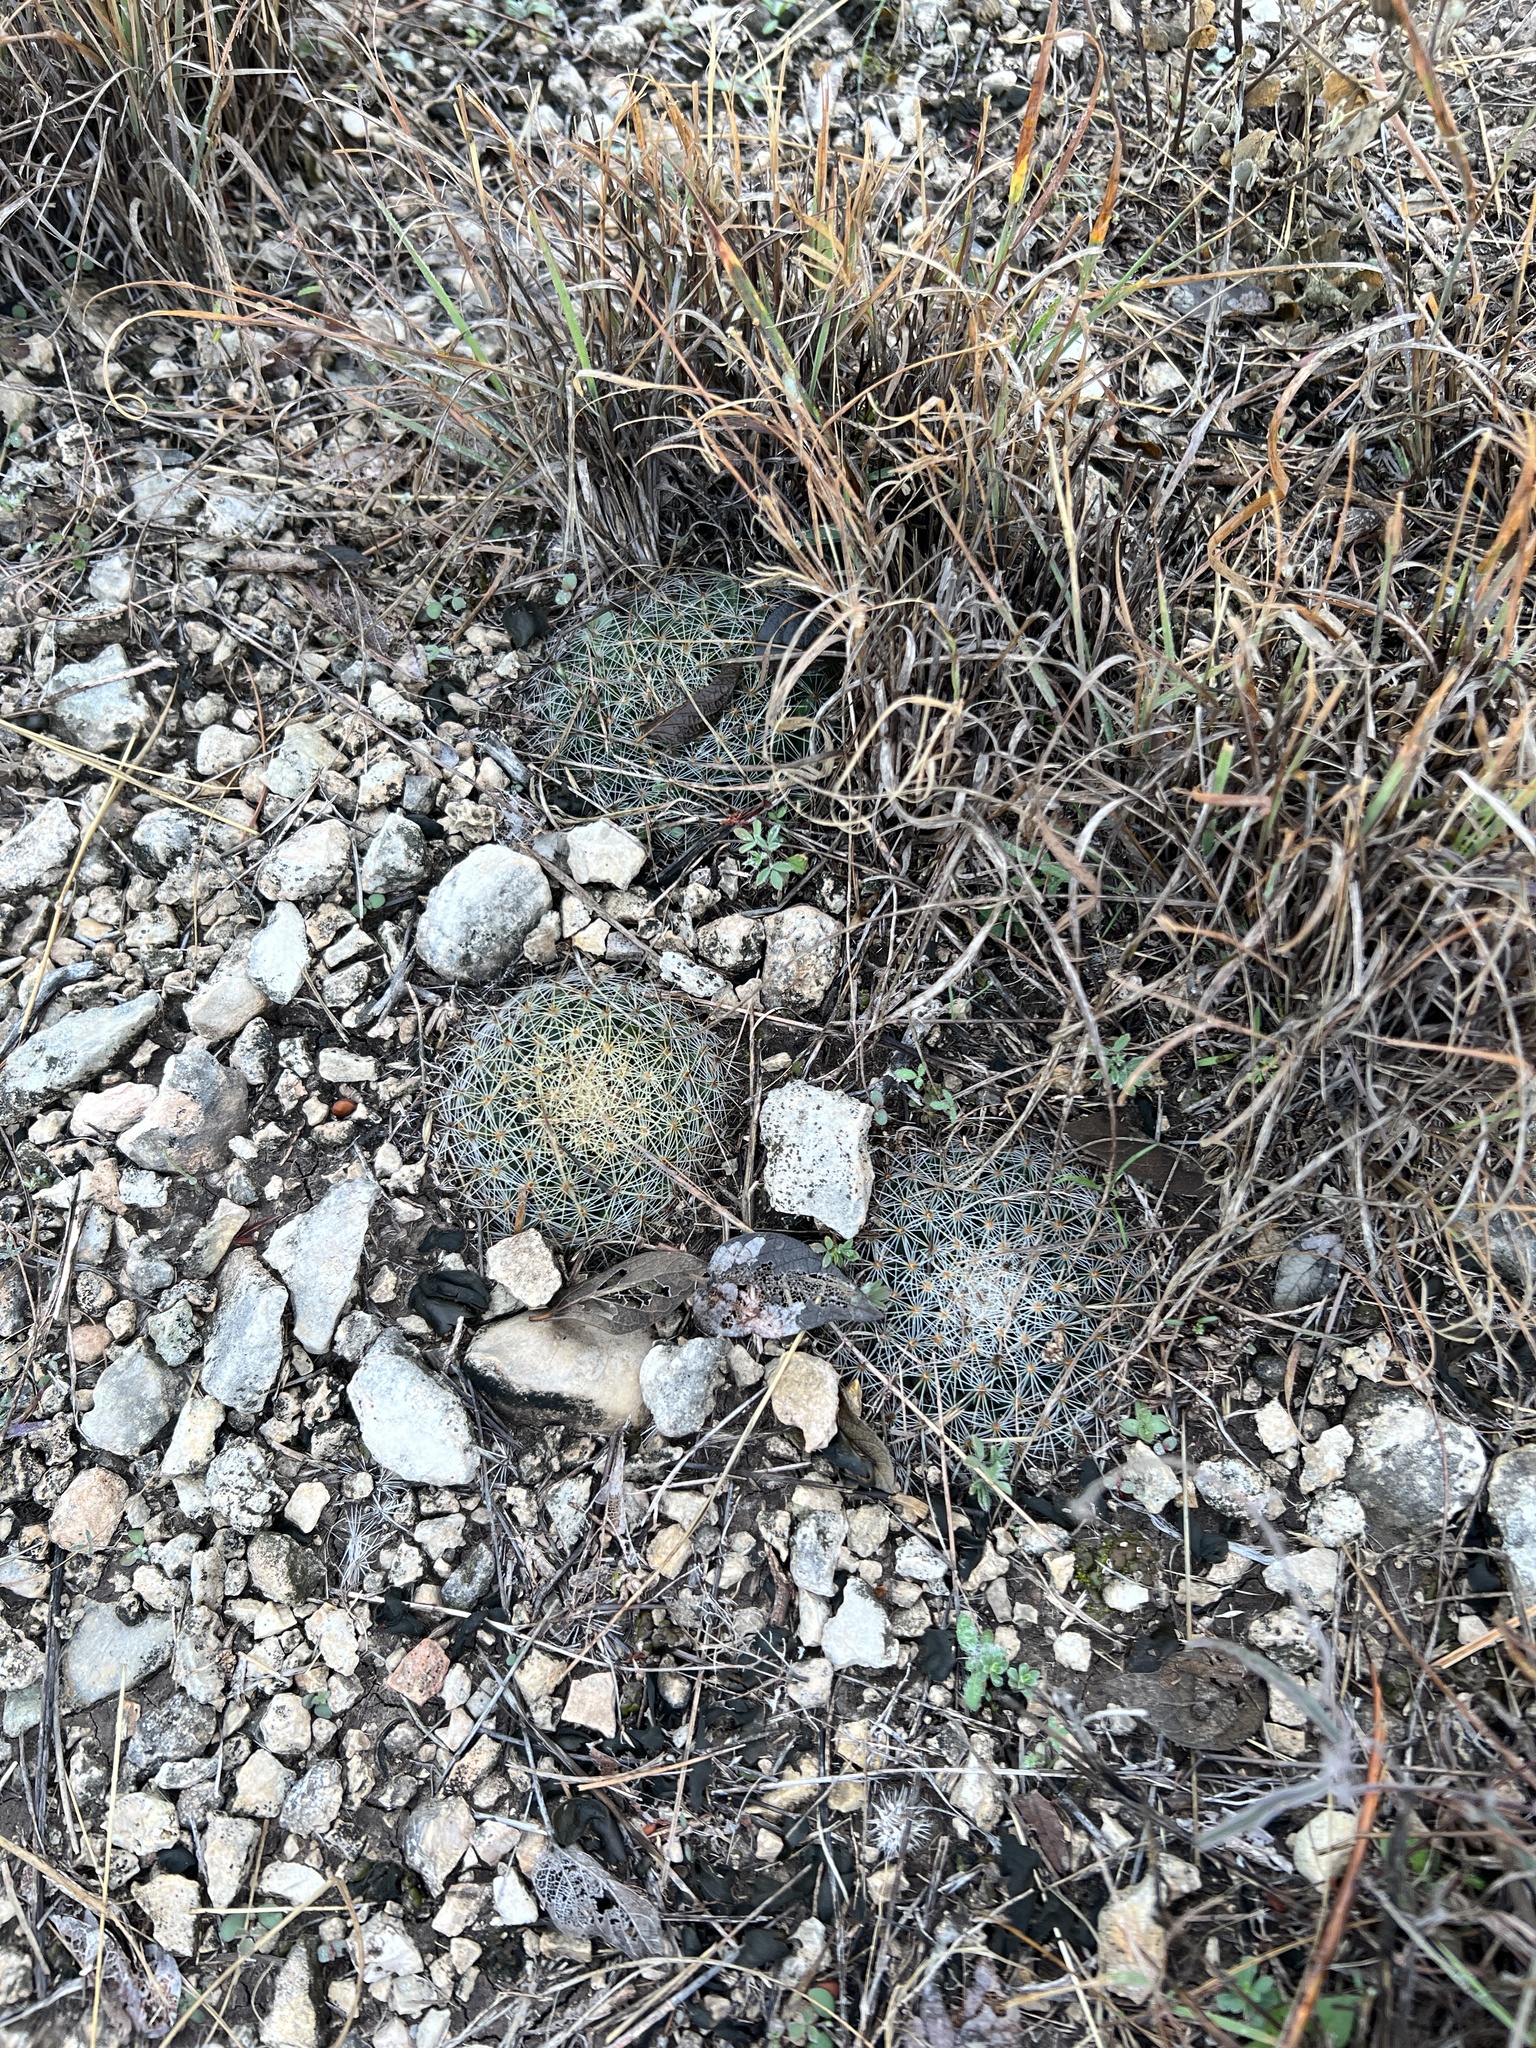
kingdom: Plantae
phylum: Tracheophyta
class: Magnoliopsida
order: Caryophyllales
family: Cactaceae
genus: Mammillaria
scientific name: Mammillaria heyderi
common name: Little nipple cactus
